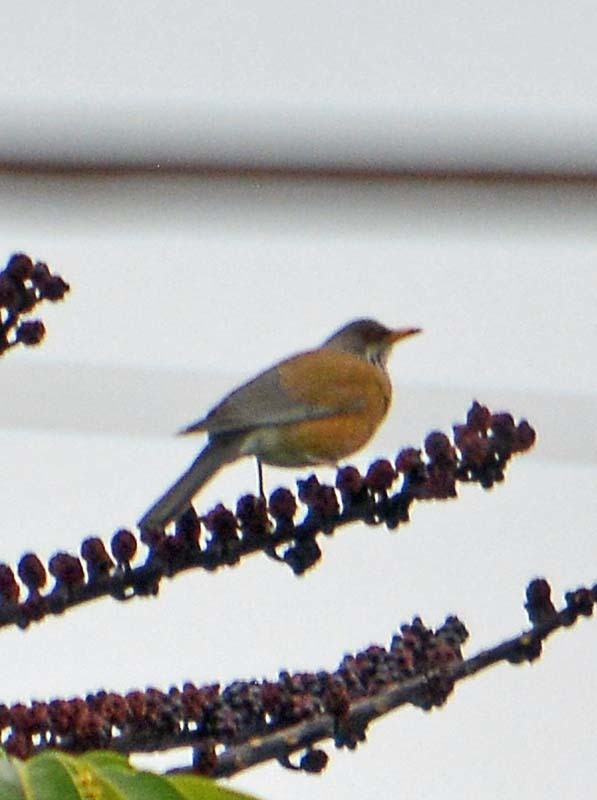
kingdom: Animalia
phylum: Chordata
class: Aves
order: Passeriformes
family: Turdidae
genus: Turdus
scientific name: Turdus rufopalliatus
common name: Rufous-backed robin
